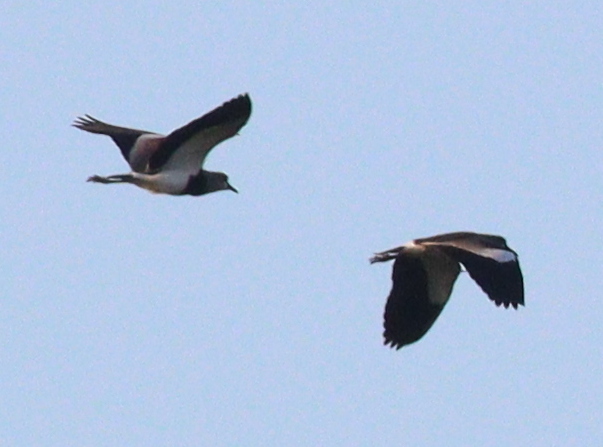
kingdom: Animalia
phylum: Chordata
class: Aves
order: Charadriiformes
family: Charadriidae
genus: Vanellus
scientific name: Vanellus chilensis
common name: Southern lapwing
